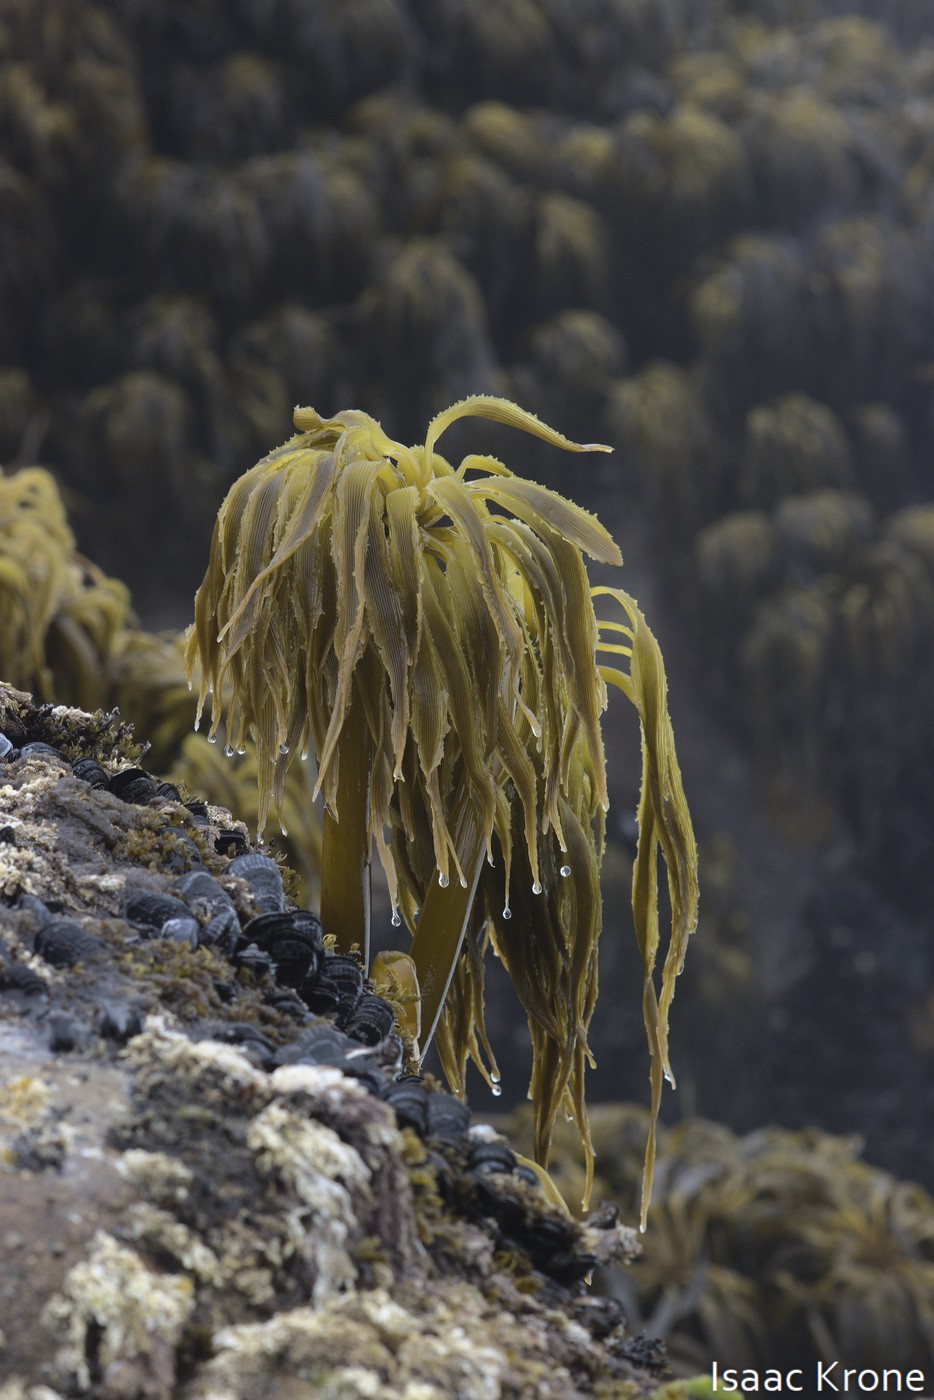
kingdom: Chromista
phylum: Ochrophyta
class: Phaeophyceae
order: Laminariales
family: Laminariaceae
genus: Postelsia
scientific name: Postelsia palmiformis
